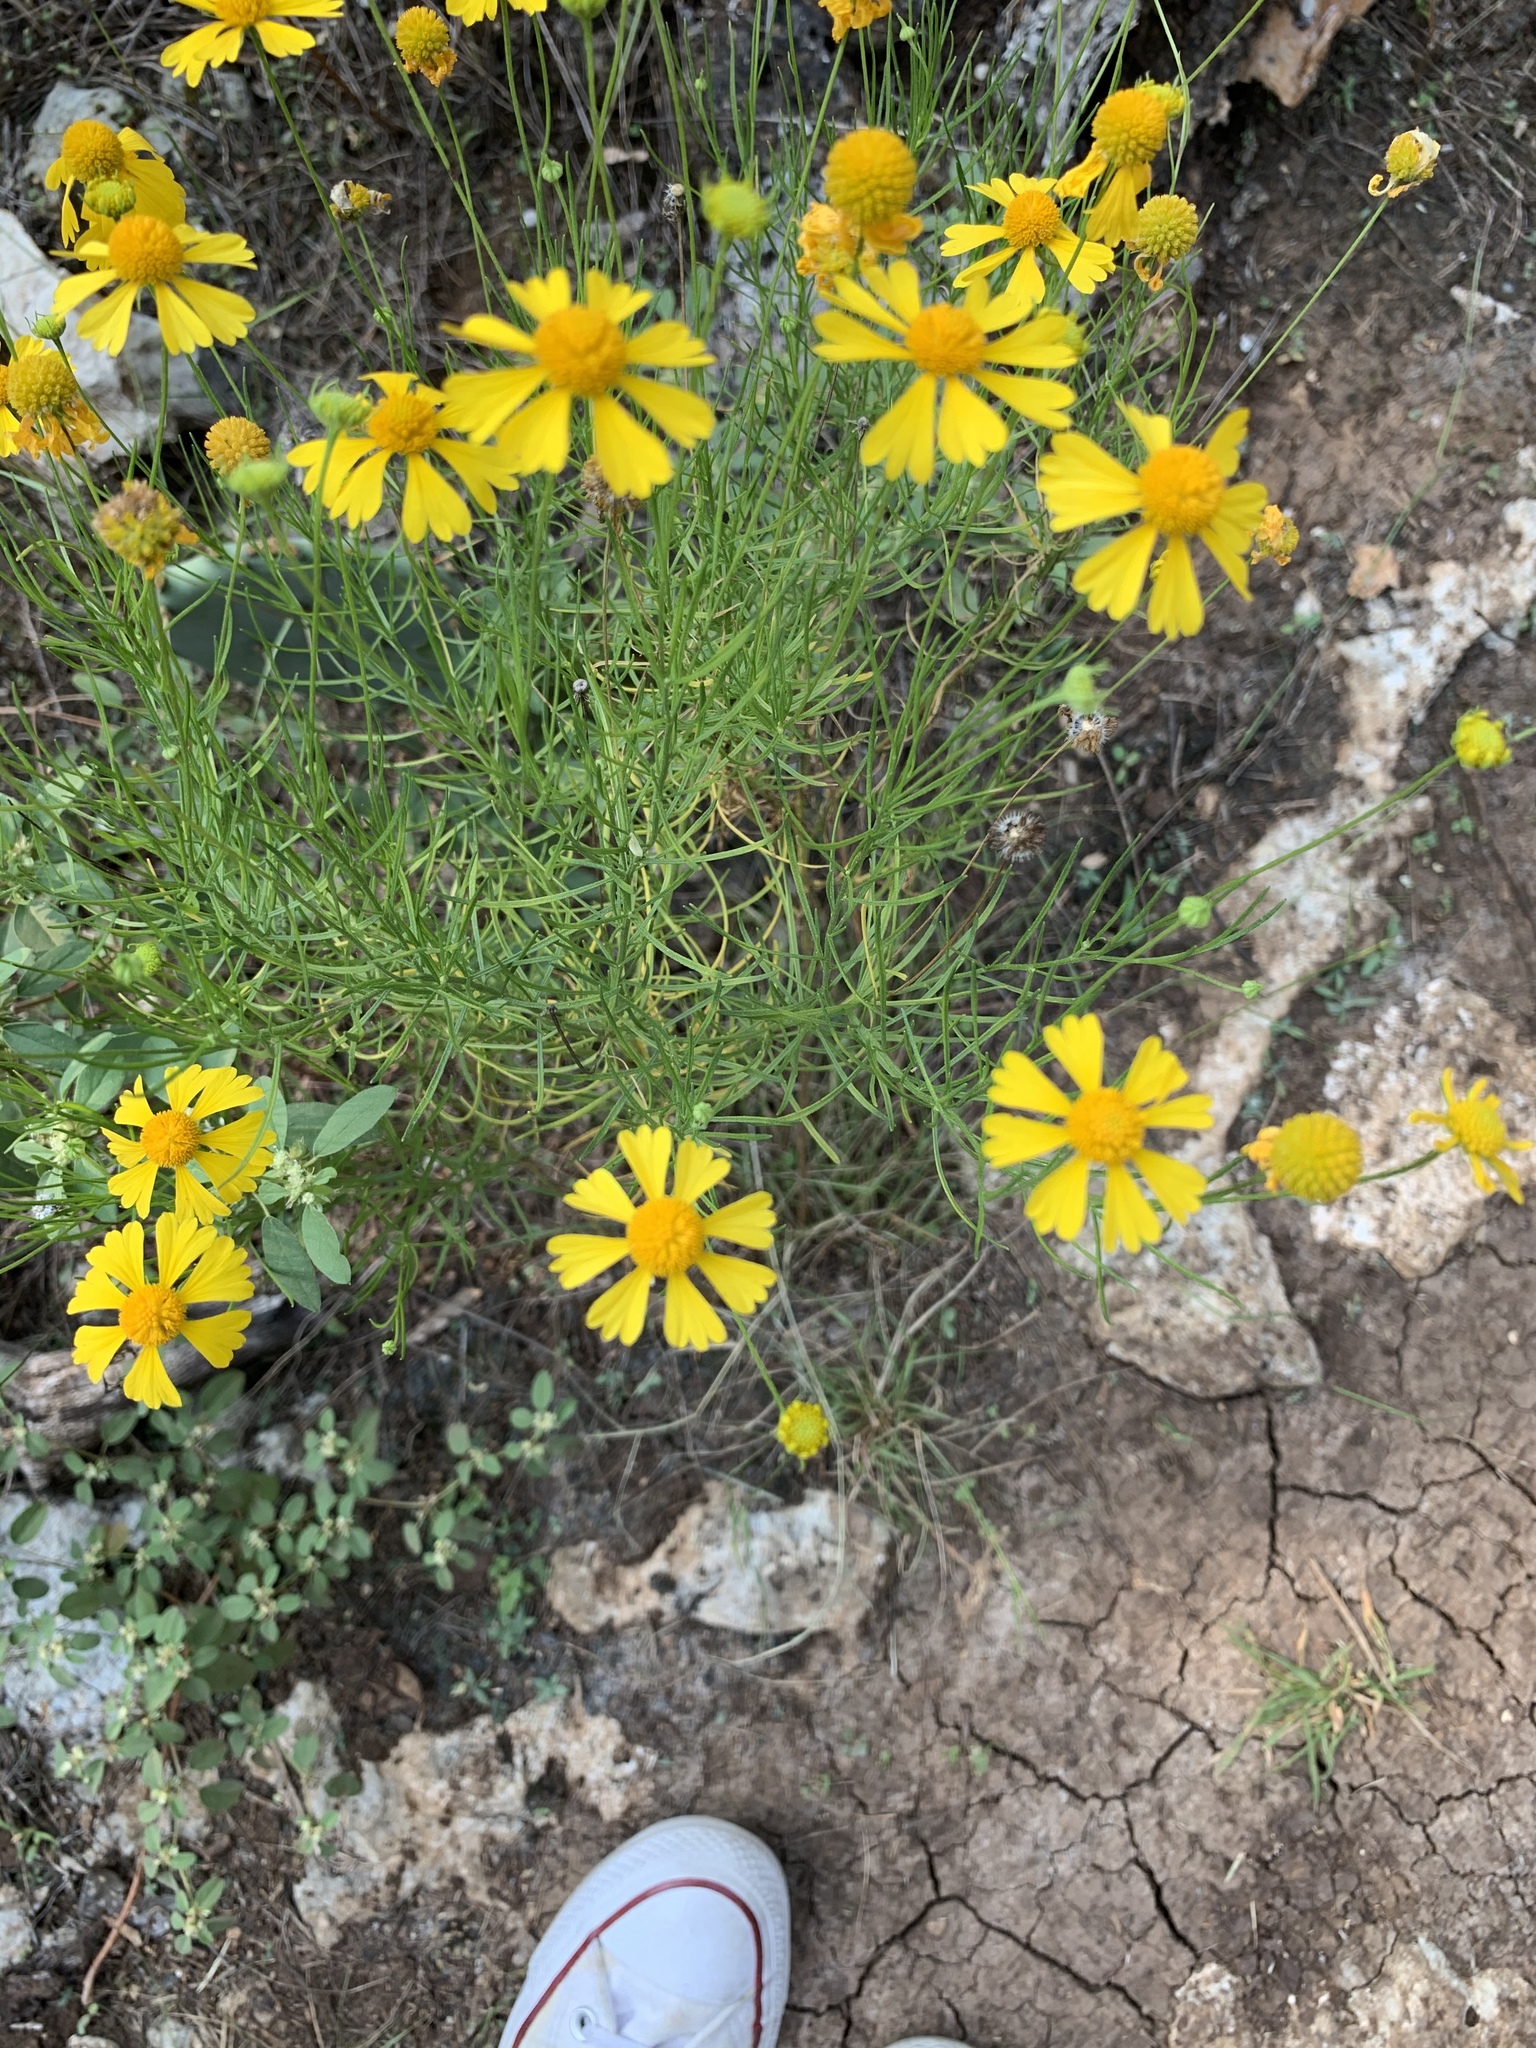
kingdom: Plantae
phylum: Tracheophyta
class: Magnoliopsida
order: Asterales
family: Asteraceae
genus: Helenium
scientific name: Helenium amarum
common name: Bitter sneezeweed
